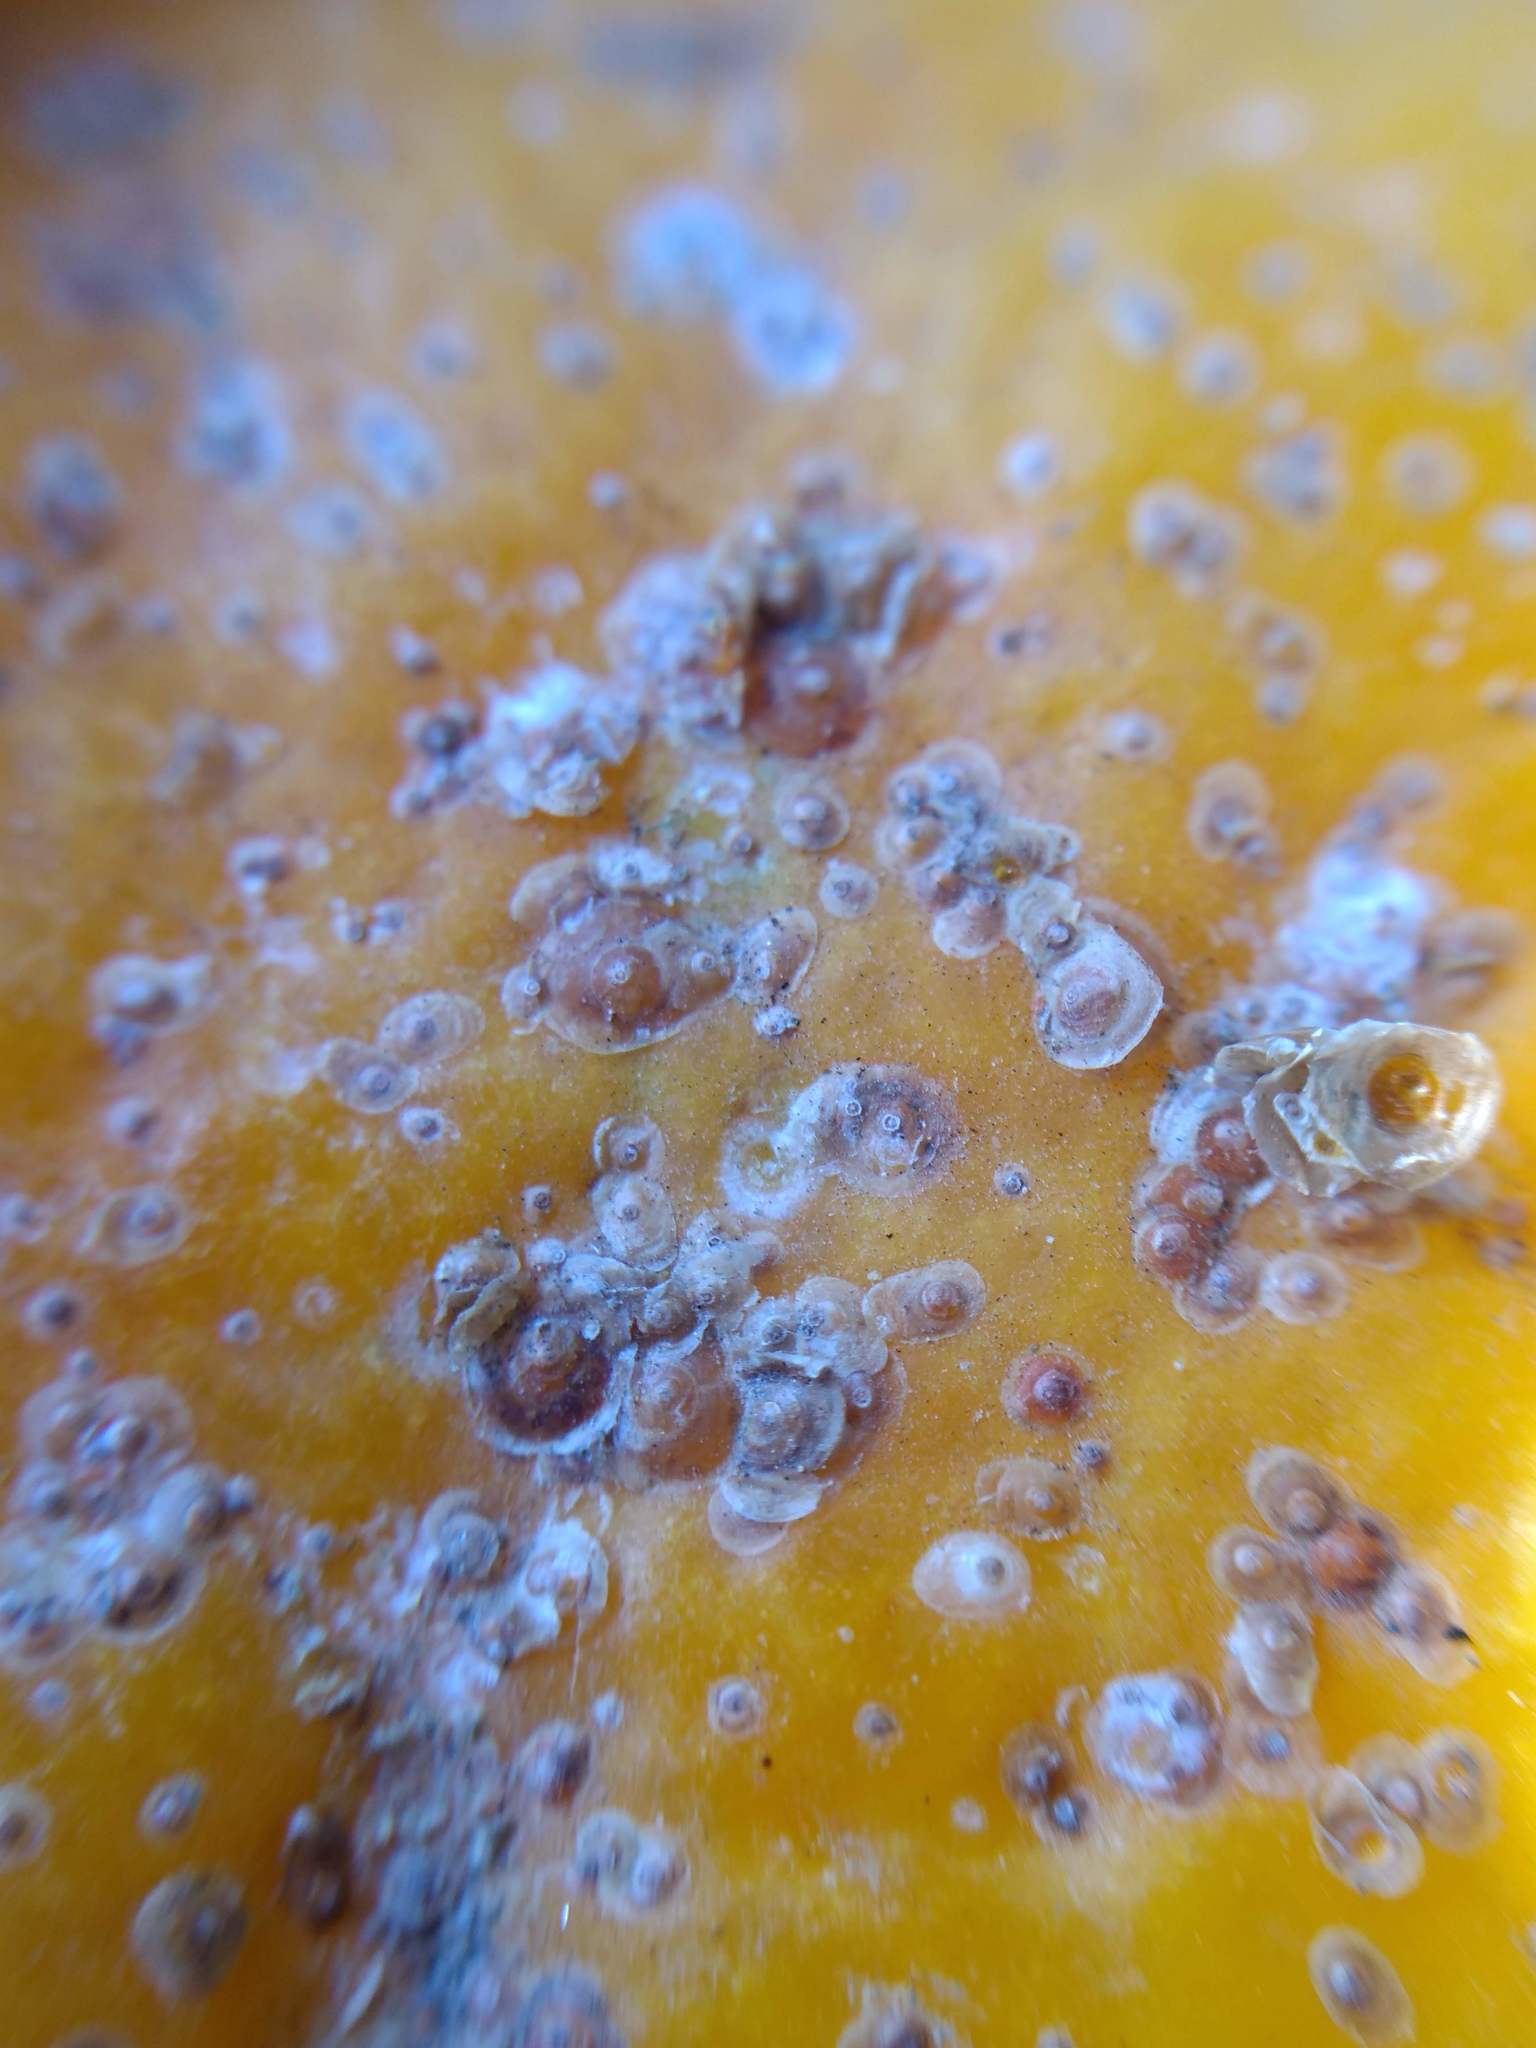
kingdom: Animalia
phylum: Arthropoda
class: Insecta
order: Hemiptera
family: Diaspididae
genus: Aonidiella
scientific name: Aonidiella aurantii
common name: California red scale
